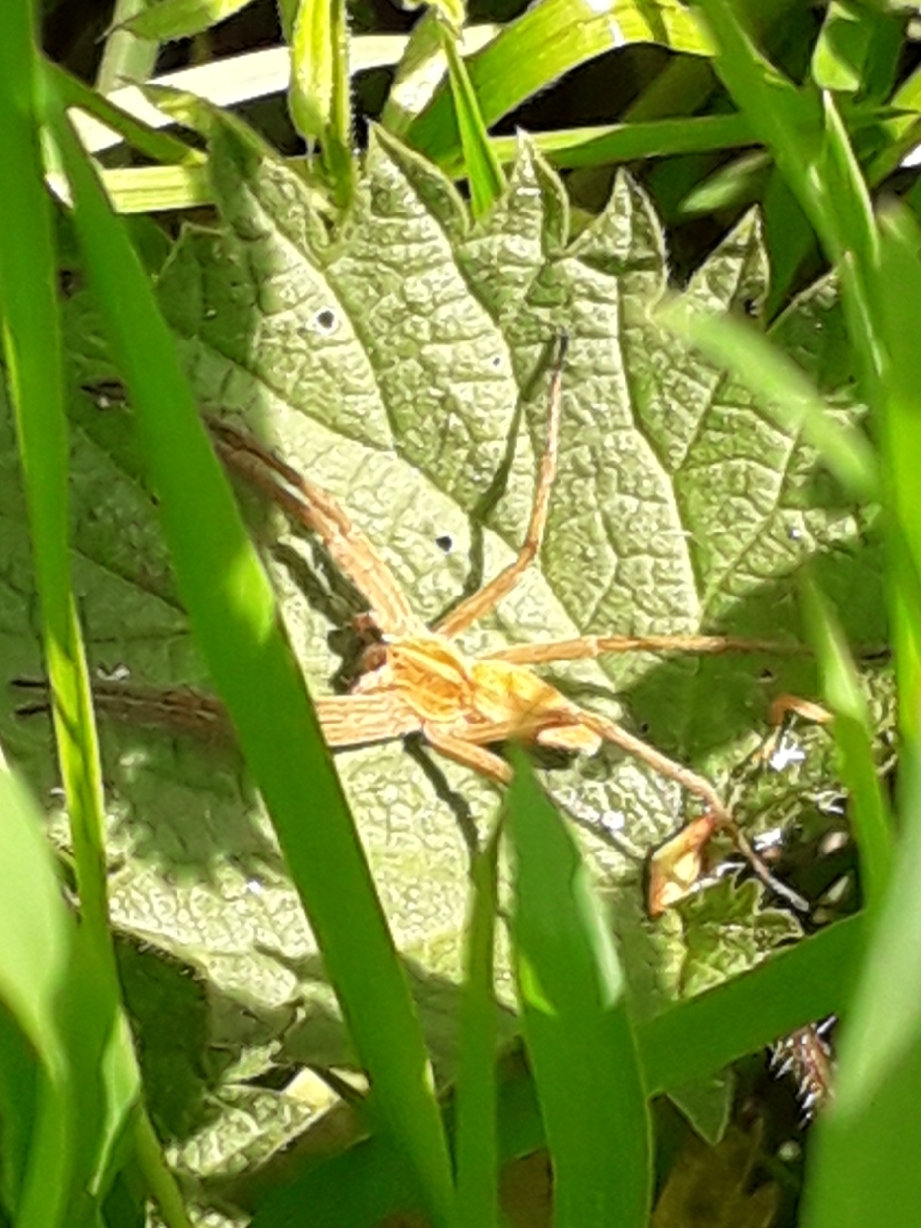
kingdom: Animalia
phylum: Arthropoda
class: Arachnida
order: Araneae
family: Pisauridae
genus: Pisaura
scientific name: Pisaura mirabilis
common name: Tent spider
